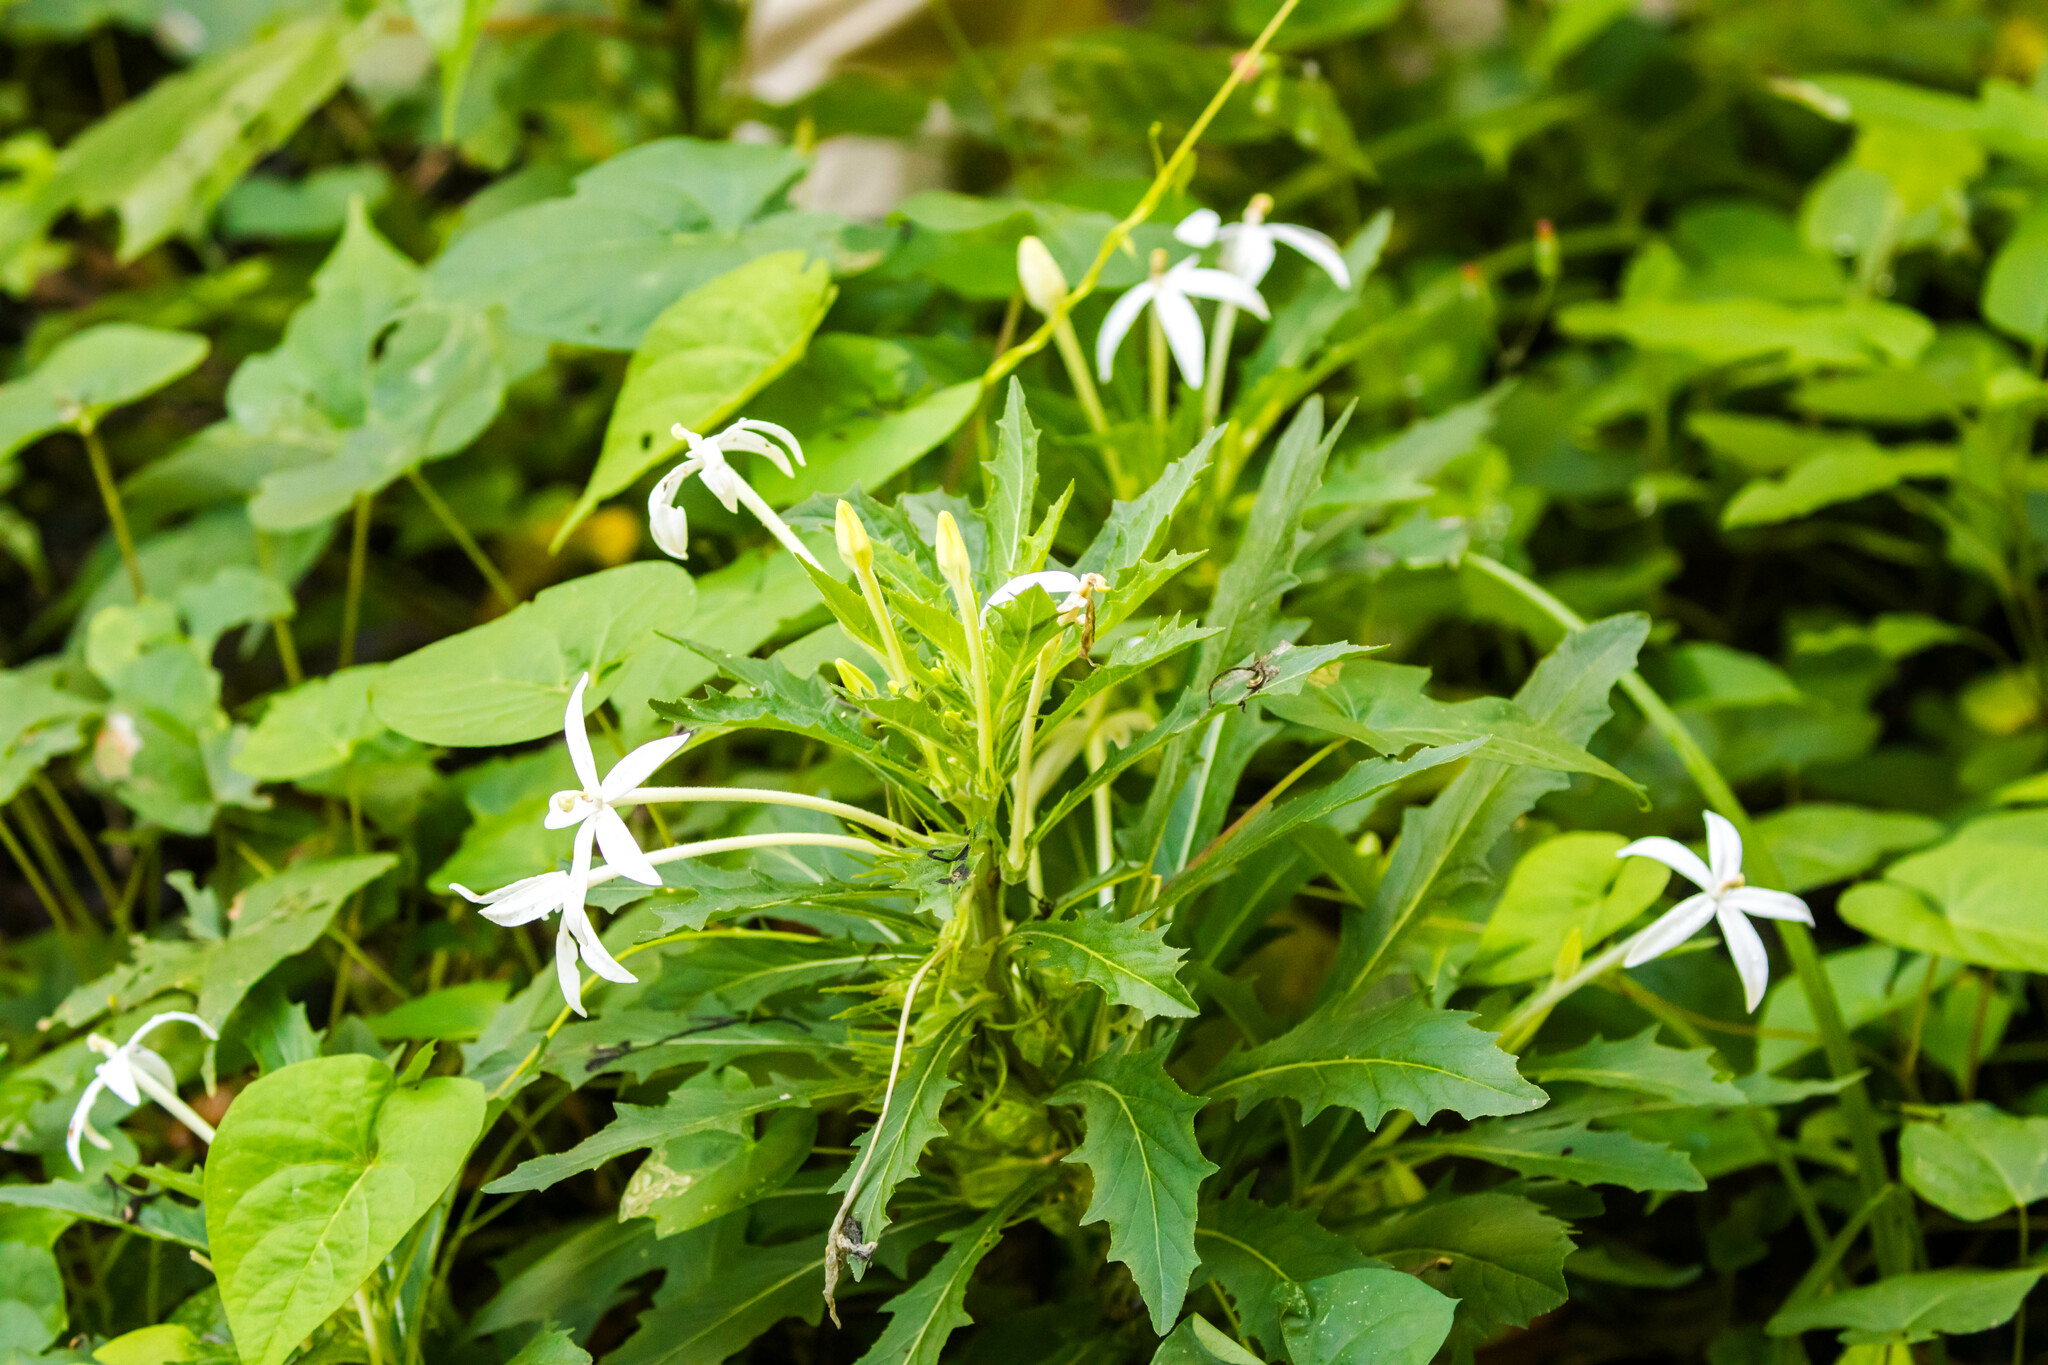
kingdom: Plantae
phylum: Tracheophyta
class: Magnoliopsida
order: Asterales
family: Campanulaceae
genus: Hippobroma
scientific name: Hippobroma longiflora
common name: Madamfate
